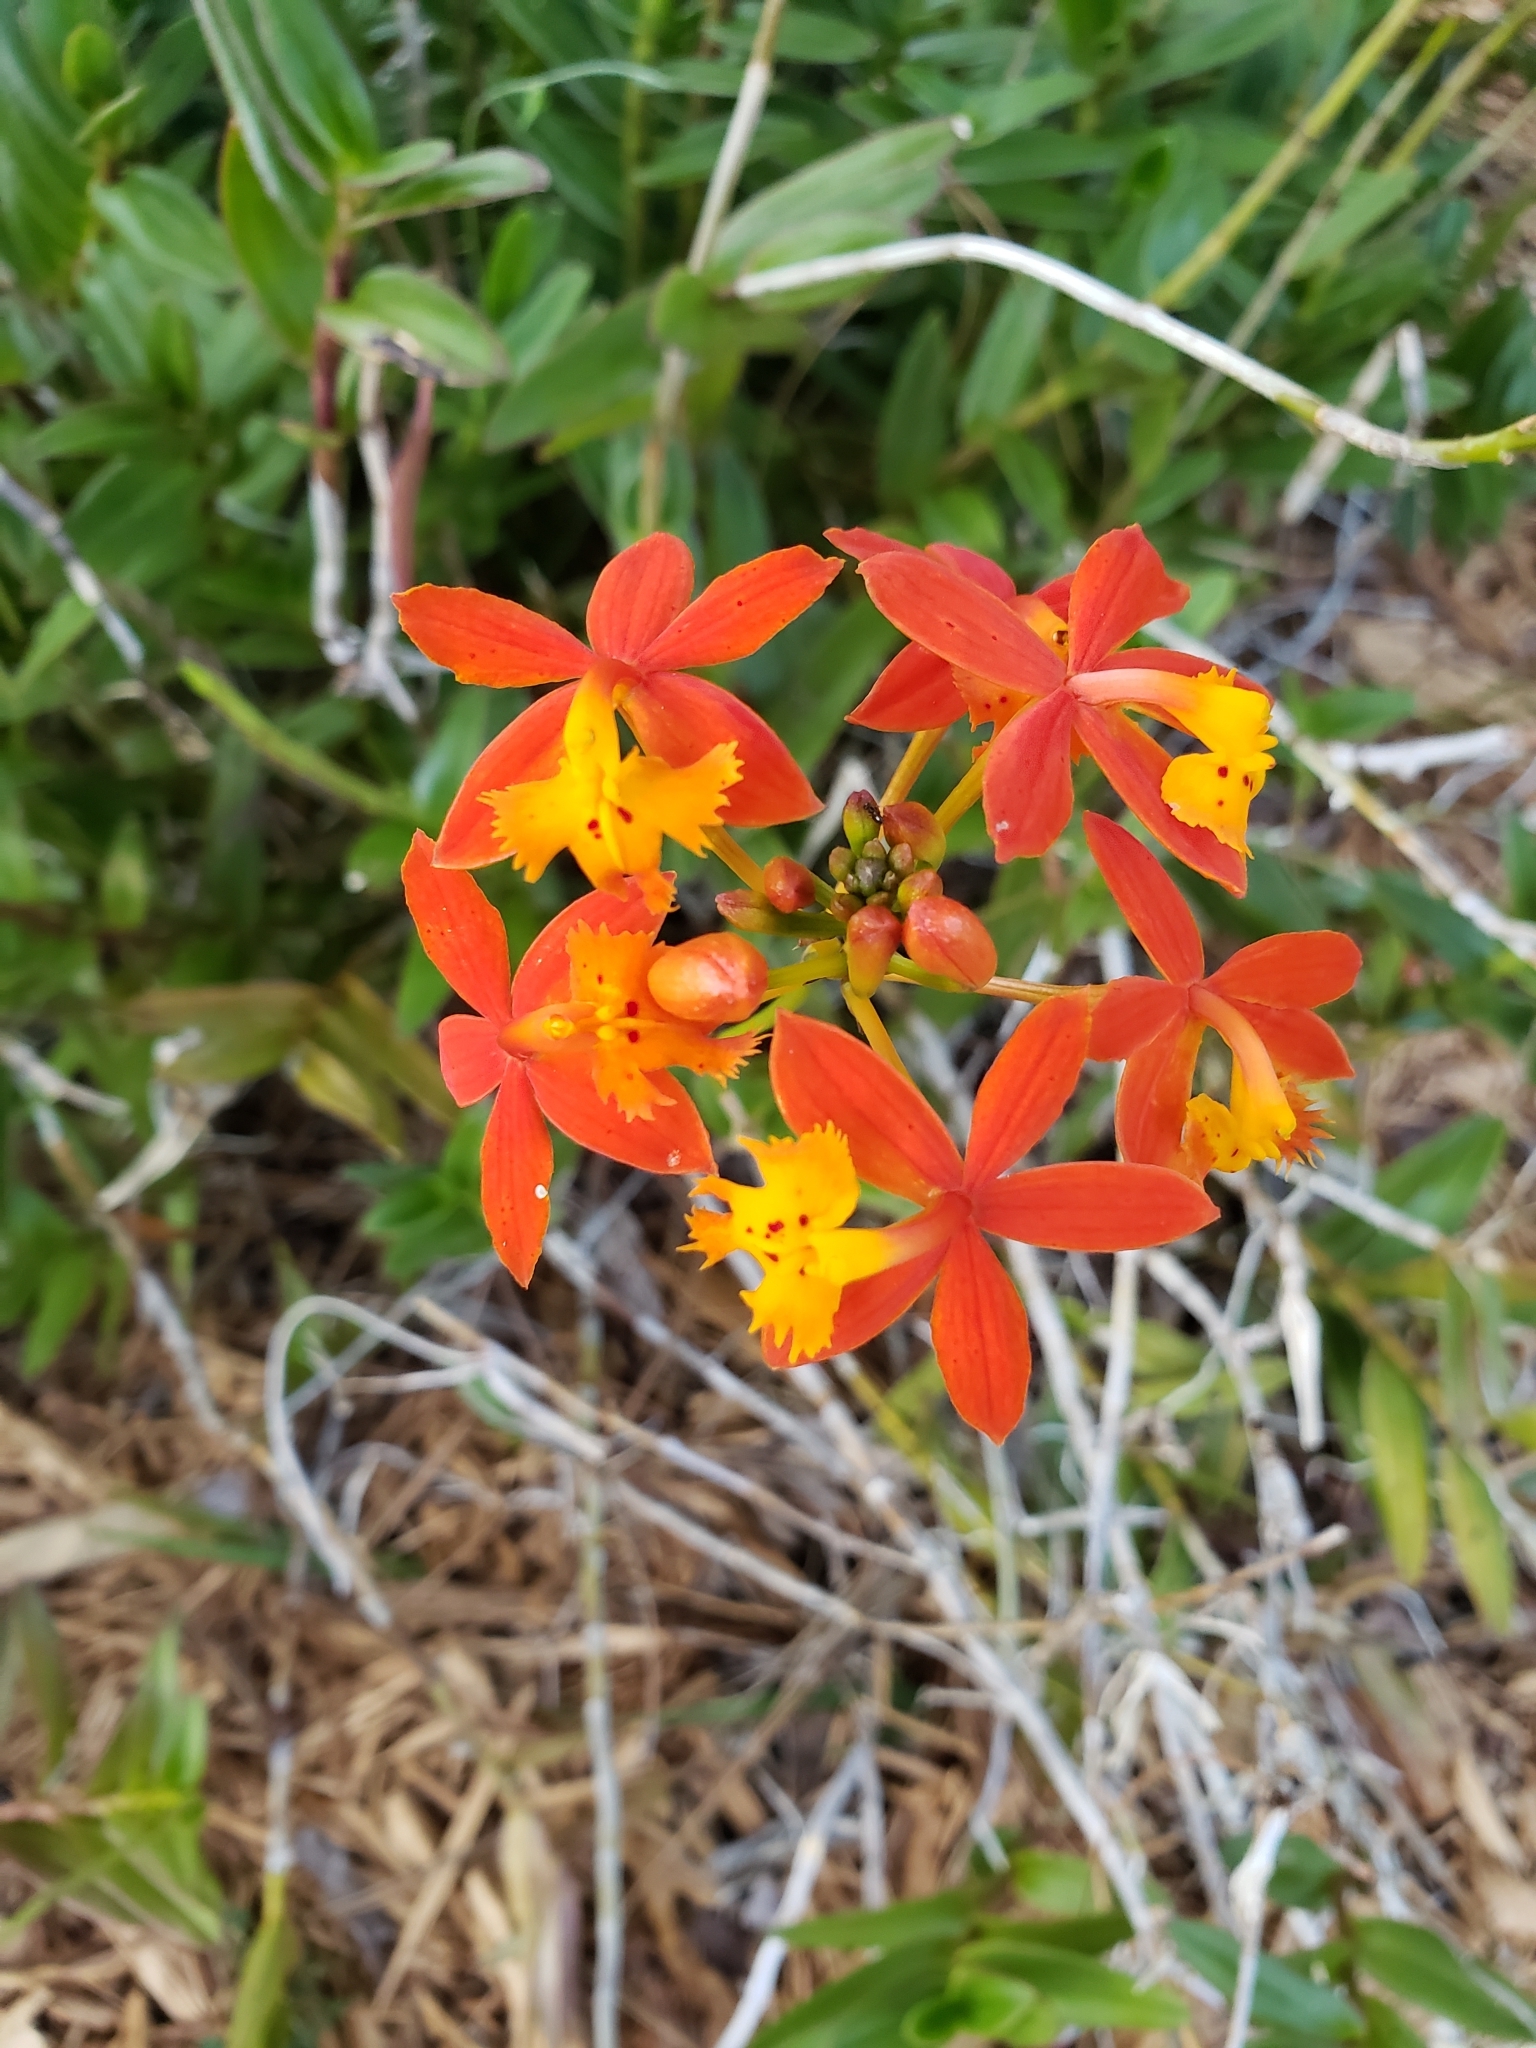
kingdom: Plantae
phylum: Tracheophyta
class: Liliopsida
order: Asparagales
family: Orchidaceae
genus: Epidendrum
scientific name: Epidendrum radicans
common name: Fire star orchid
